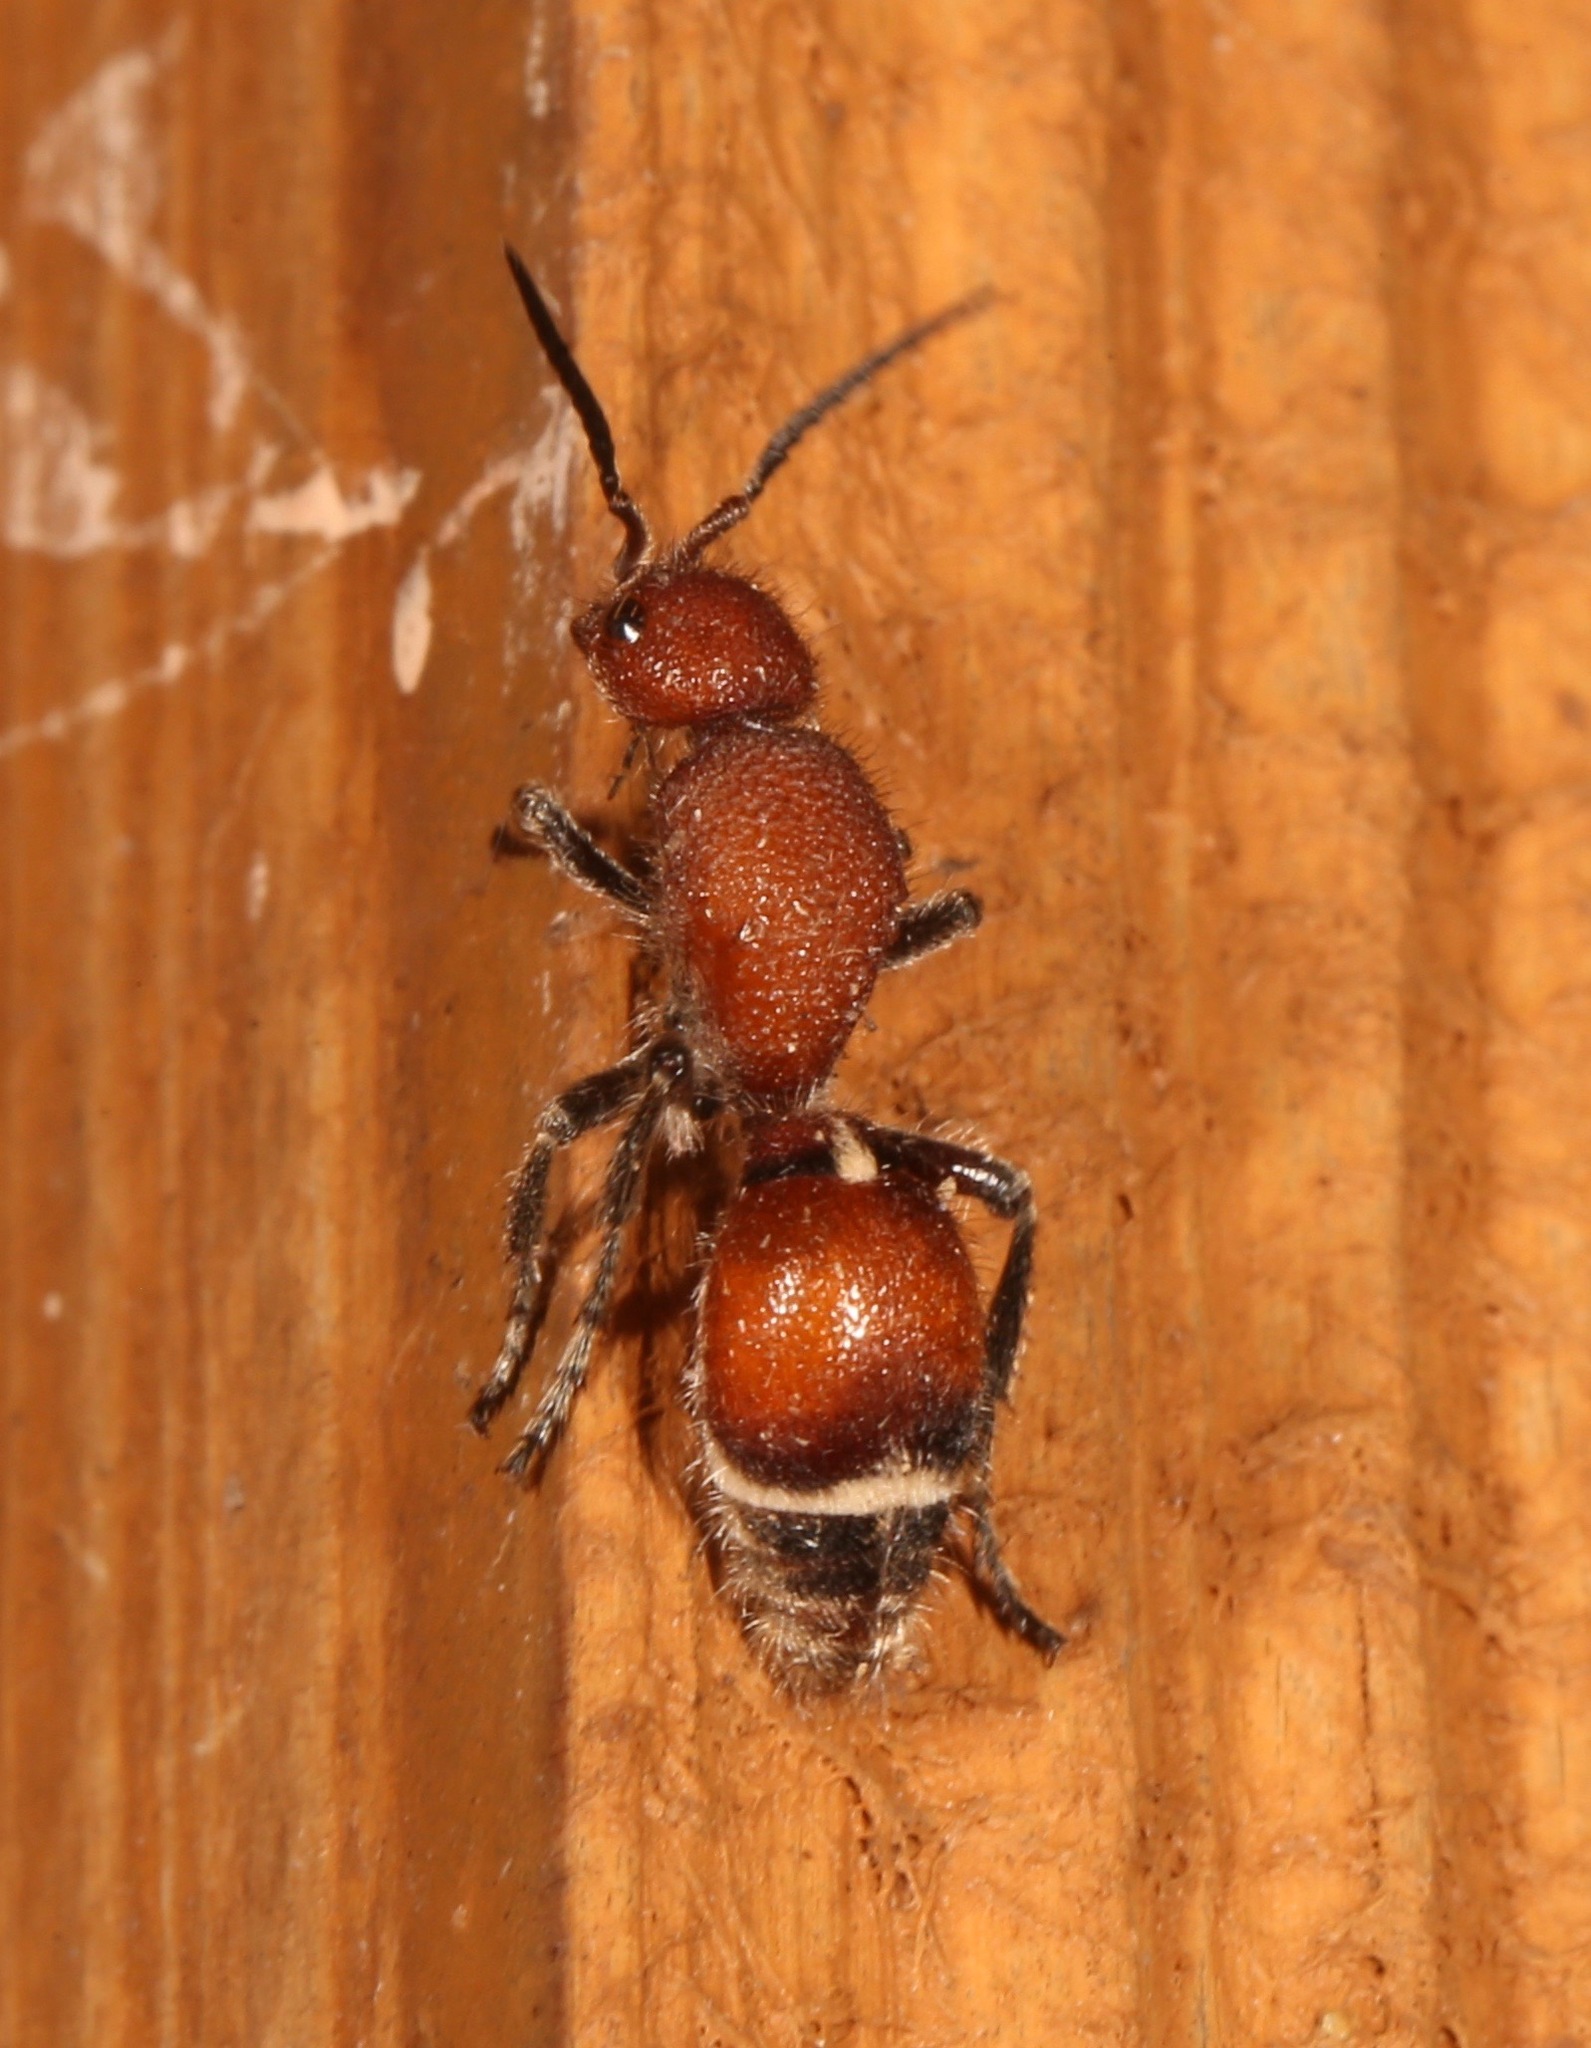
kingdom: Animalia
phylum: Arthropoda
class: Insecta
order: Hymenoptera
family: Mutillidae
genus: Sphaeropthalma
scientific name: Sphaeropthalma
